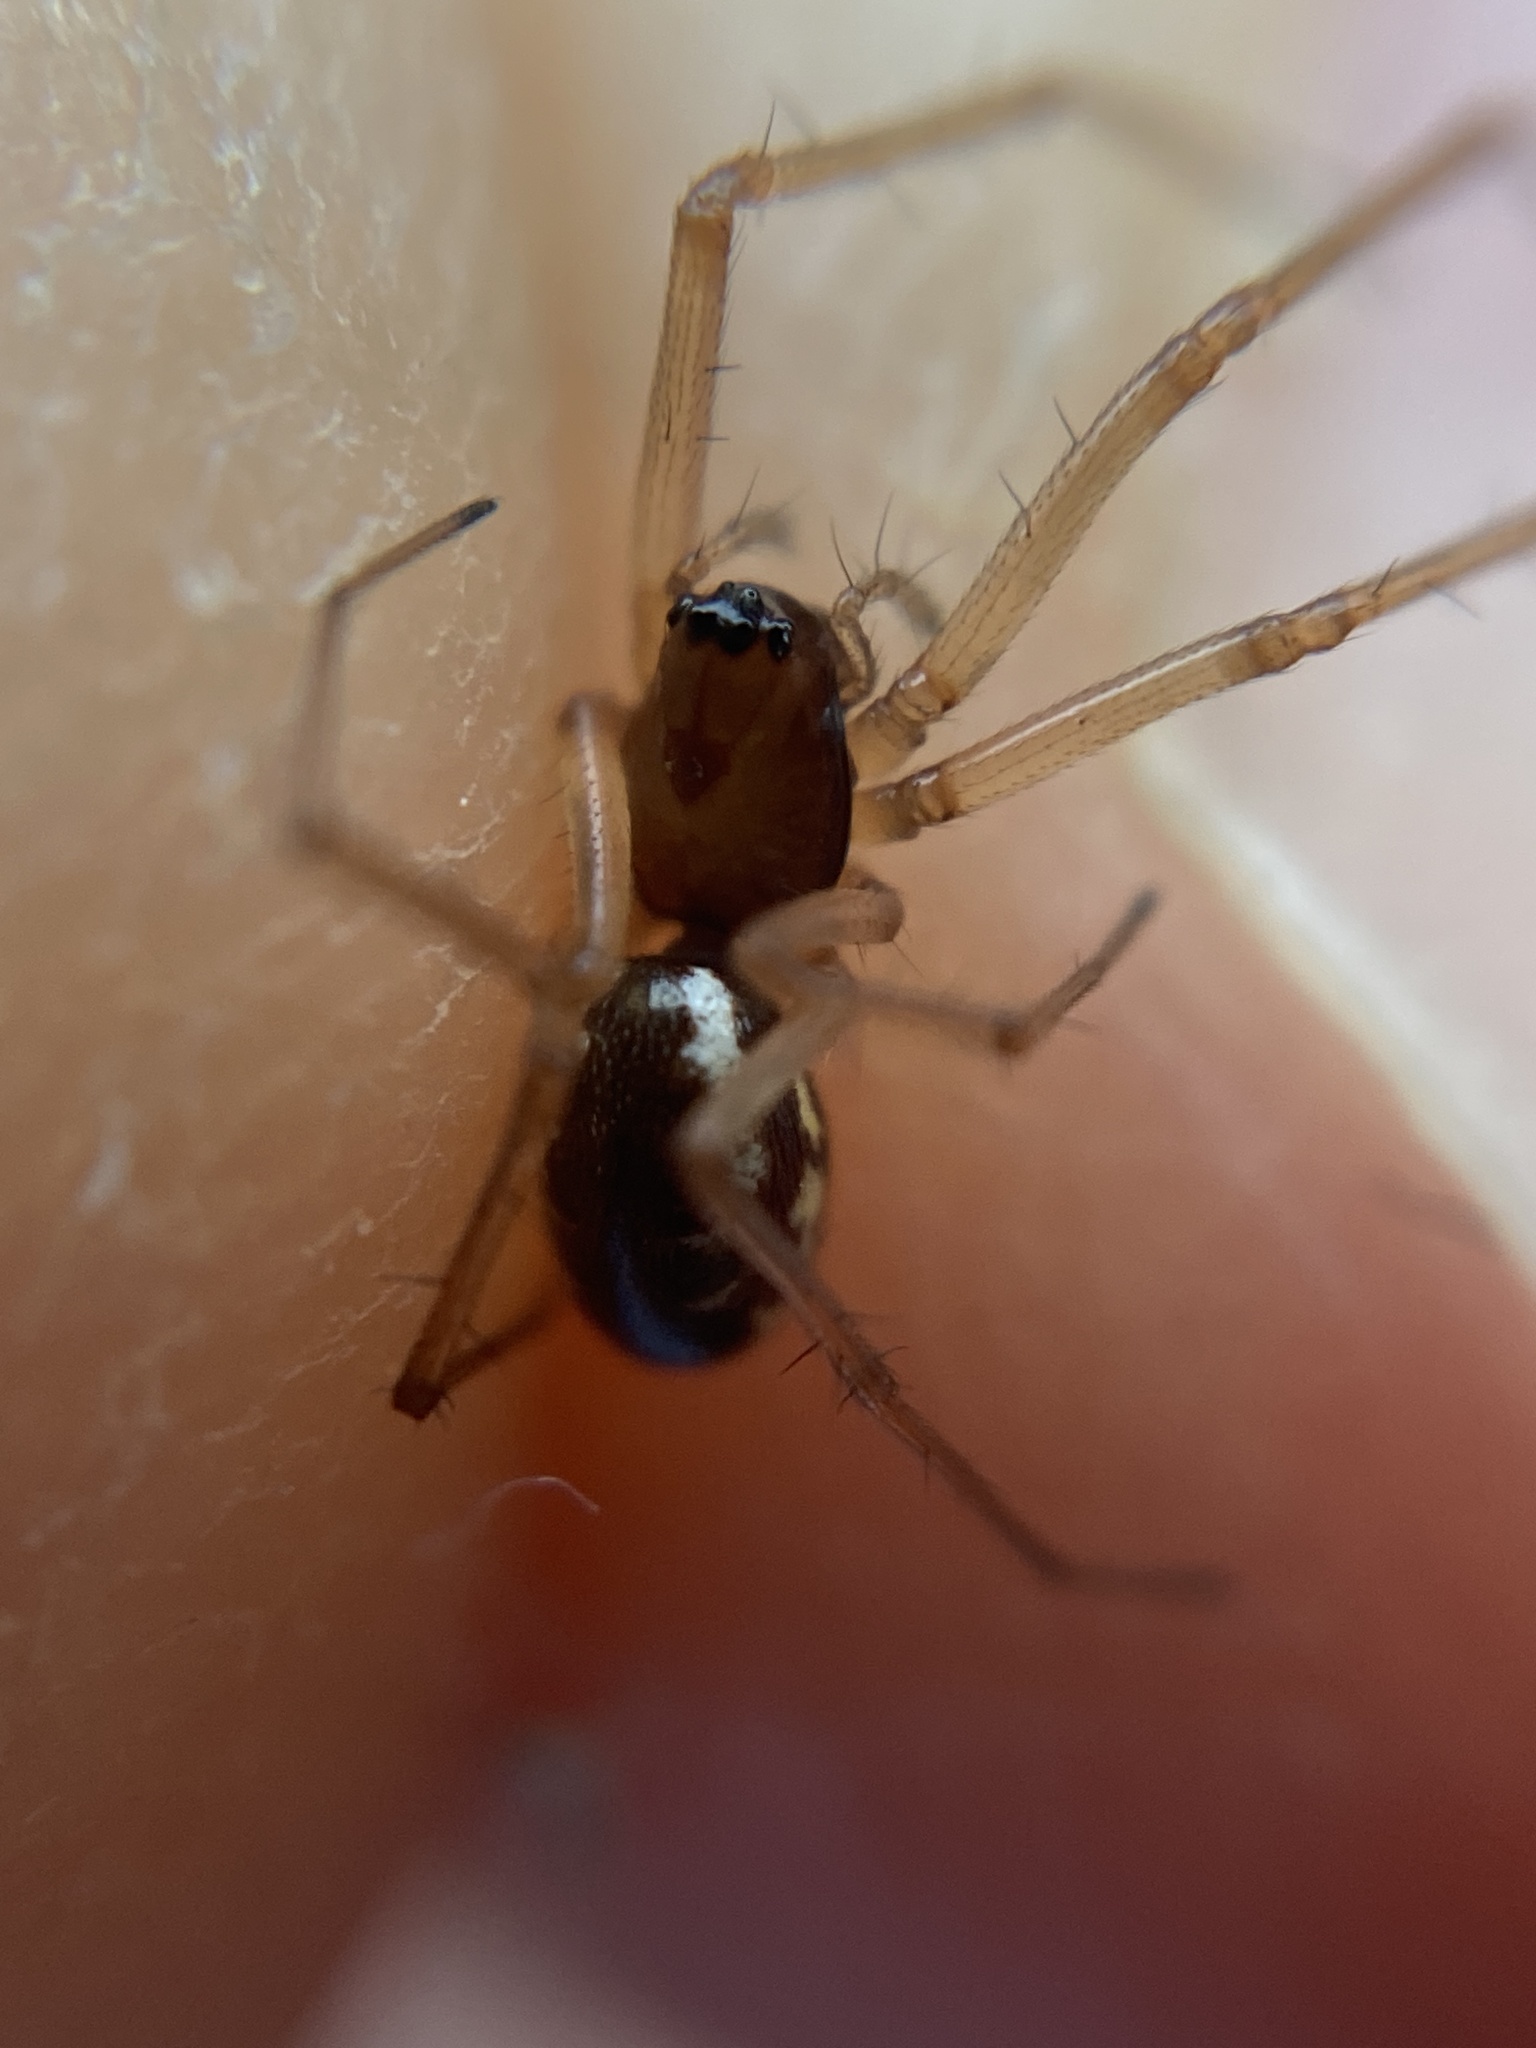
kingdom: Animalia
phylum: Arthropoda
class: Arachnida
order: Araneae
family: Linyphiidae
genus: Microlinyphia
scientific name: Microlinyphia pusilla
